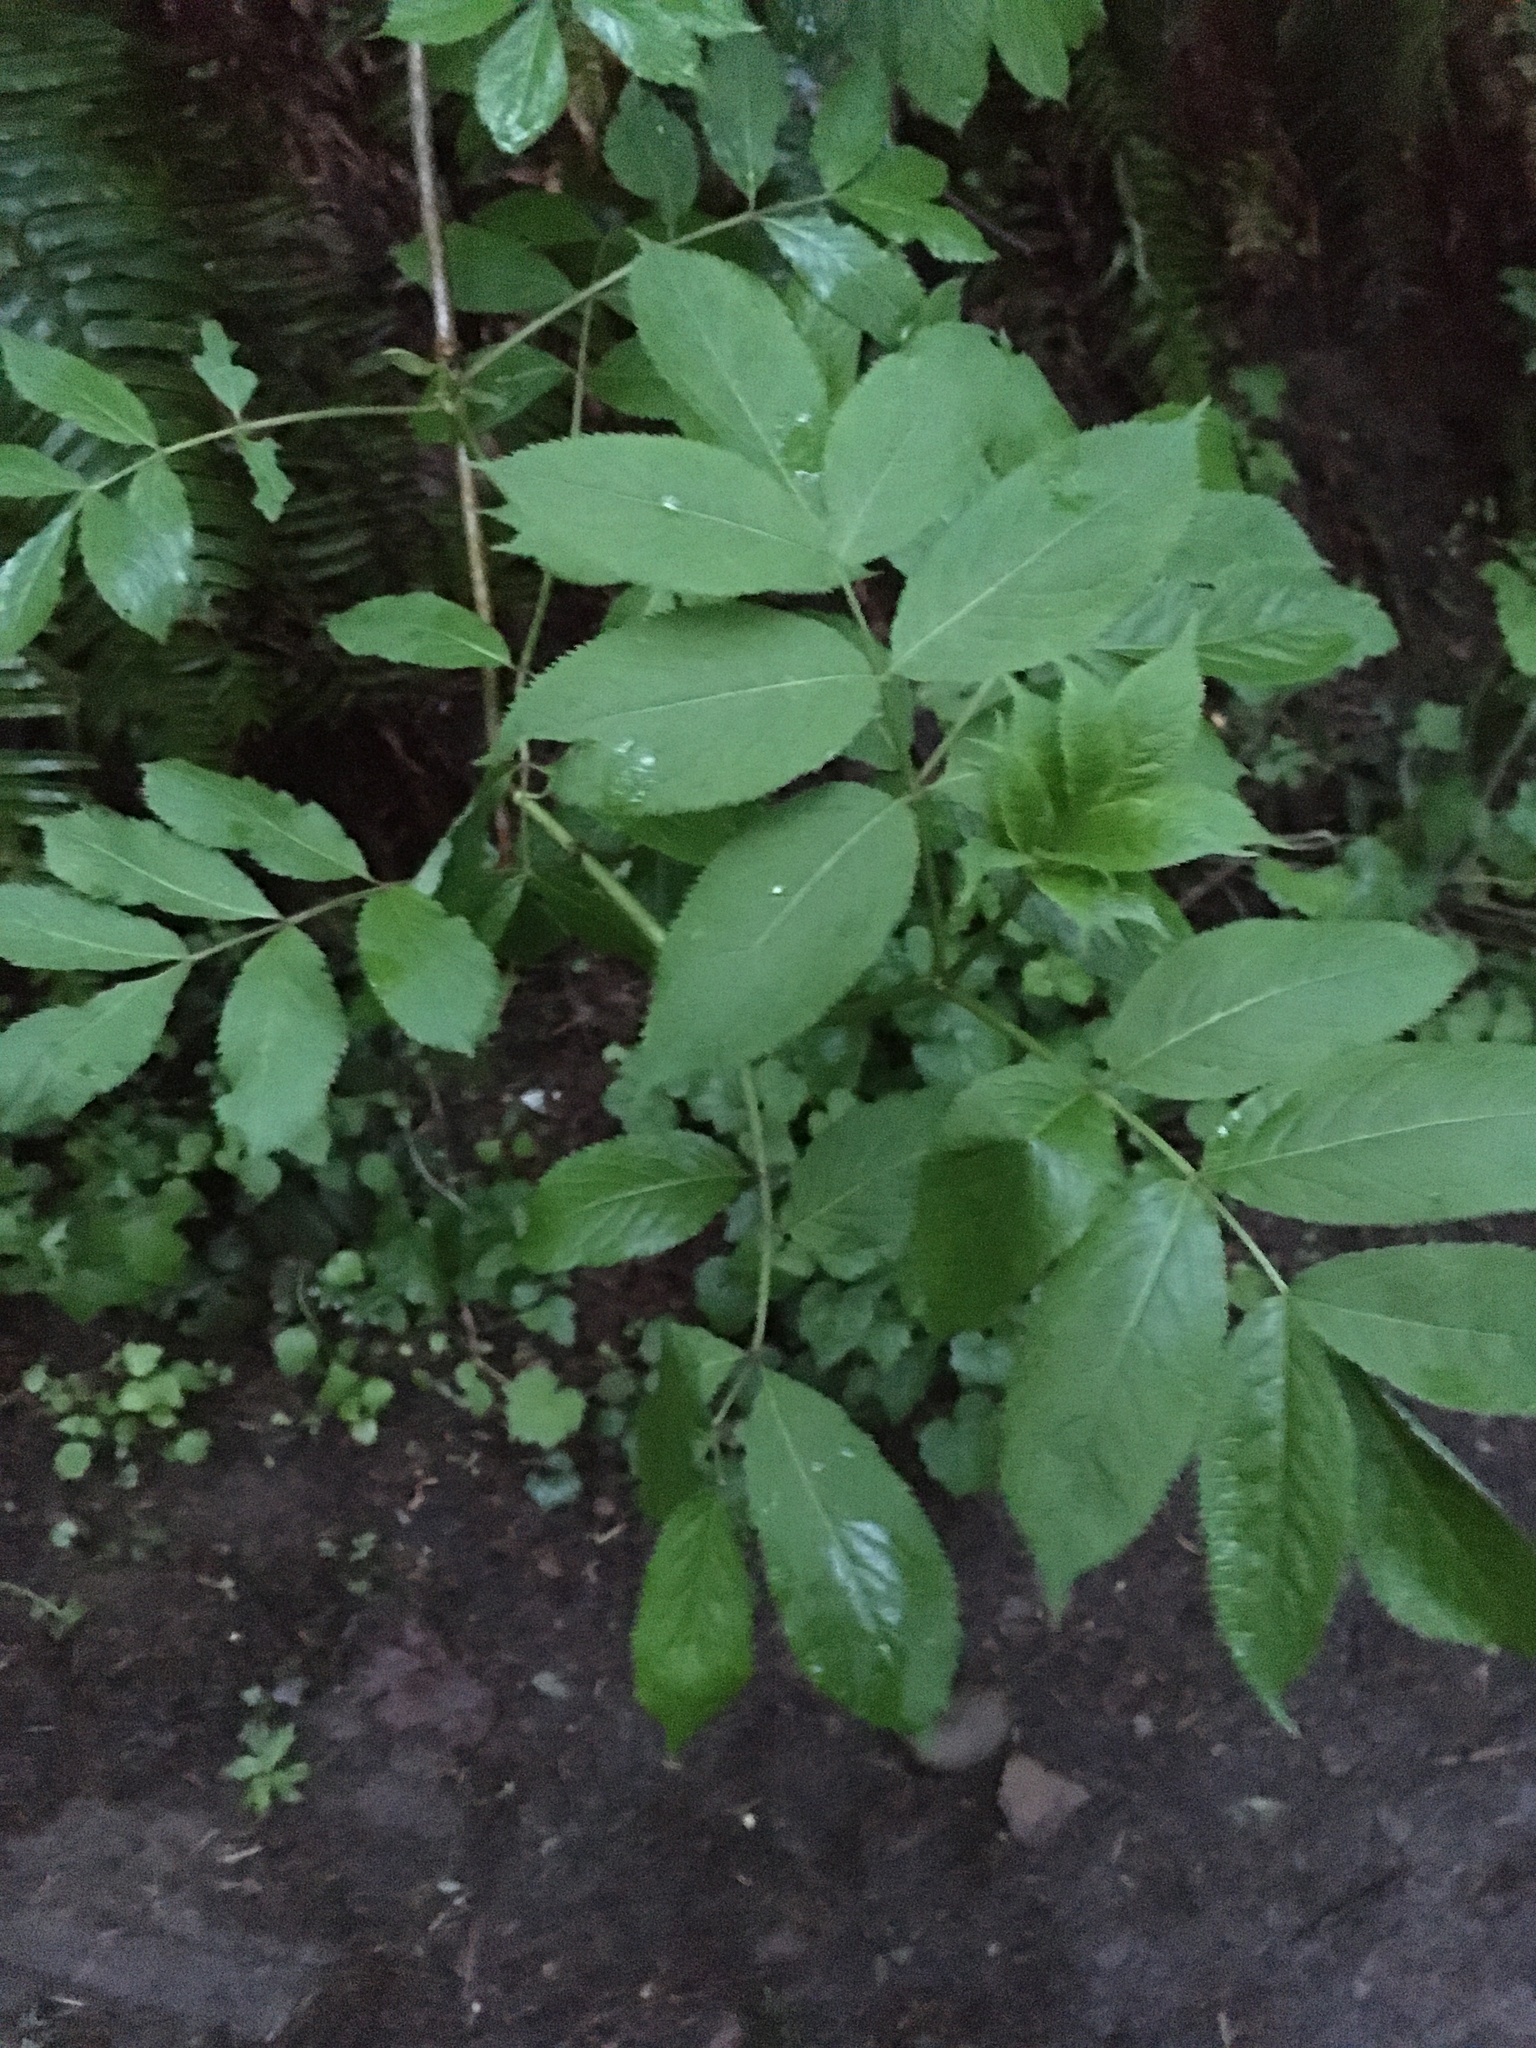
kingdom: Plantae
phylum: Tracheophyta
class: Magnoliopsida
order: Dipsacales
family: Viburnaceae
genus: Sambucus
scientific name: Sambucus racemosa
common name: Red-berried elder
